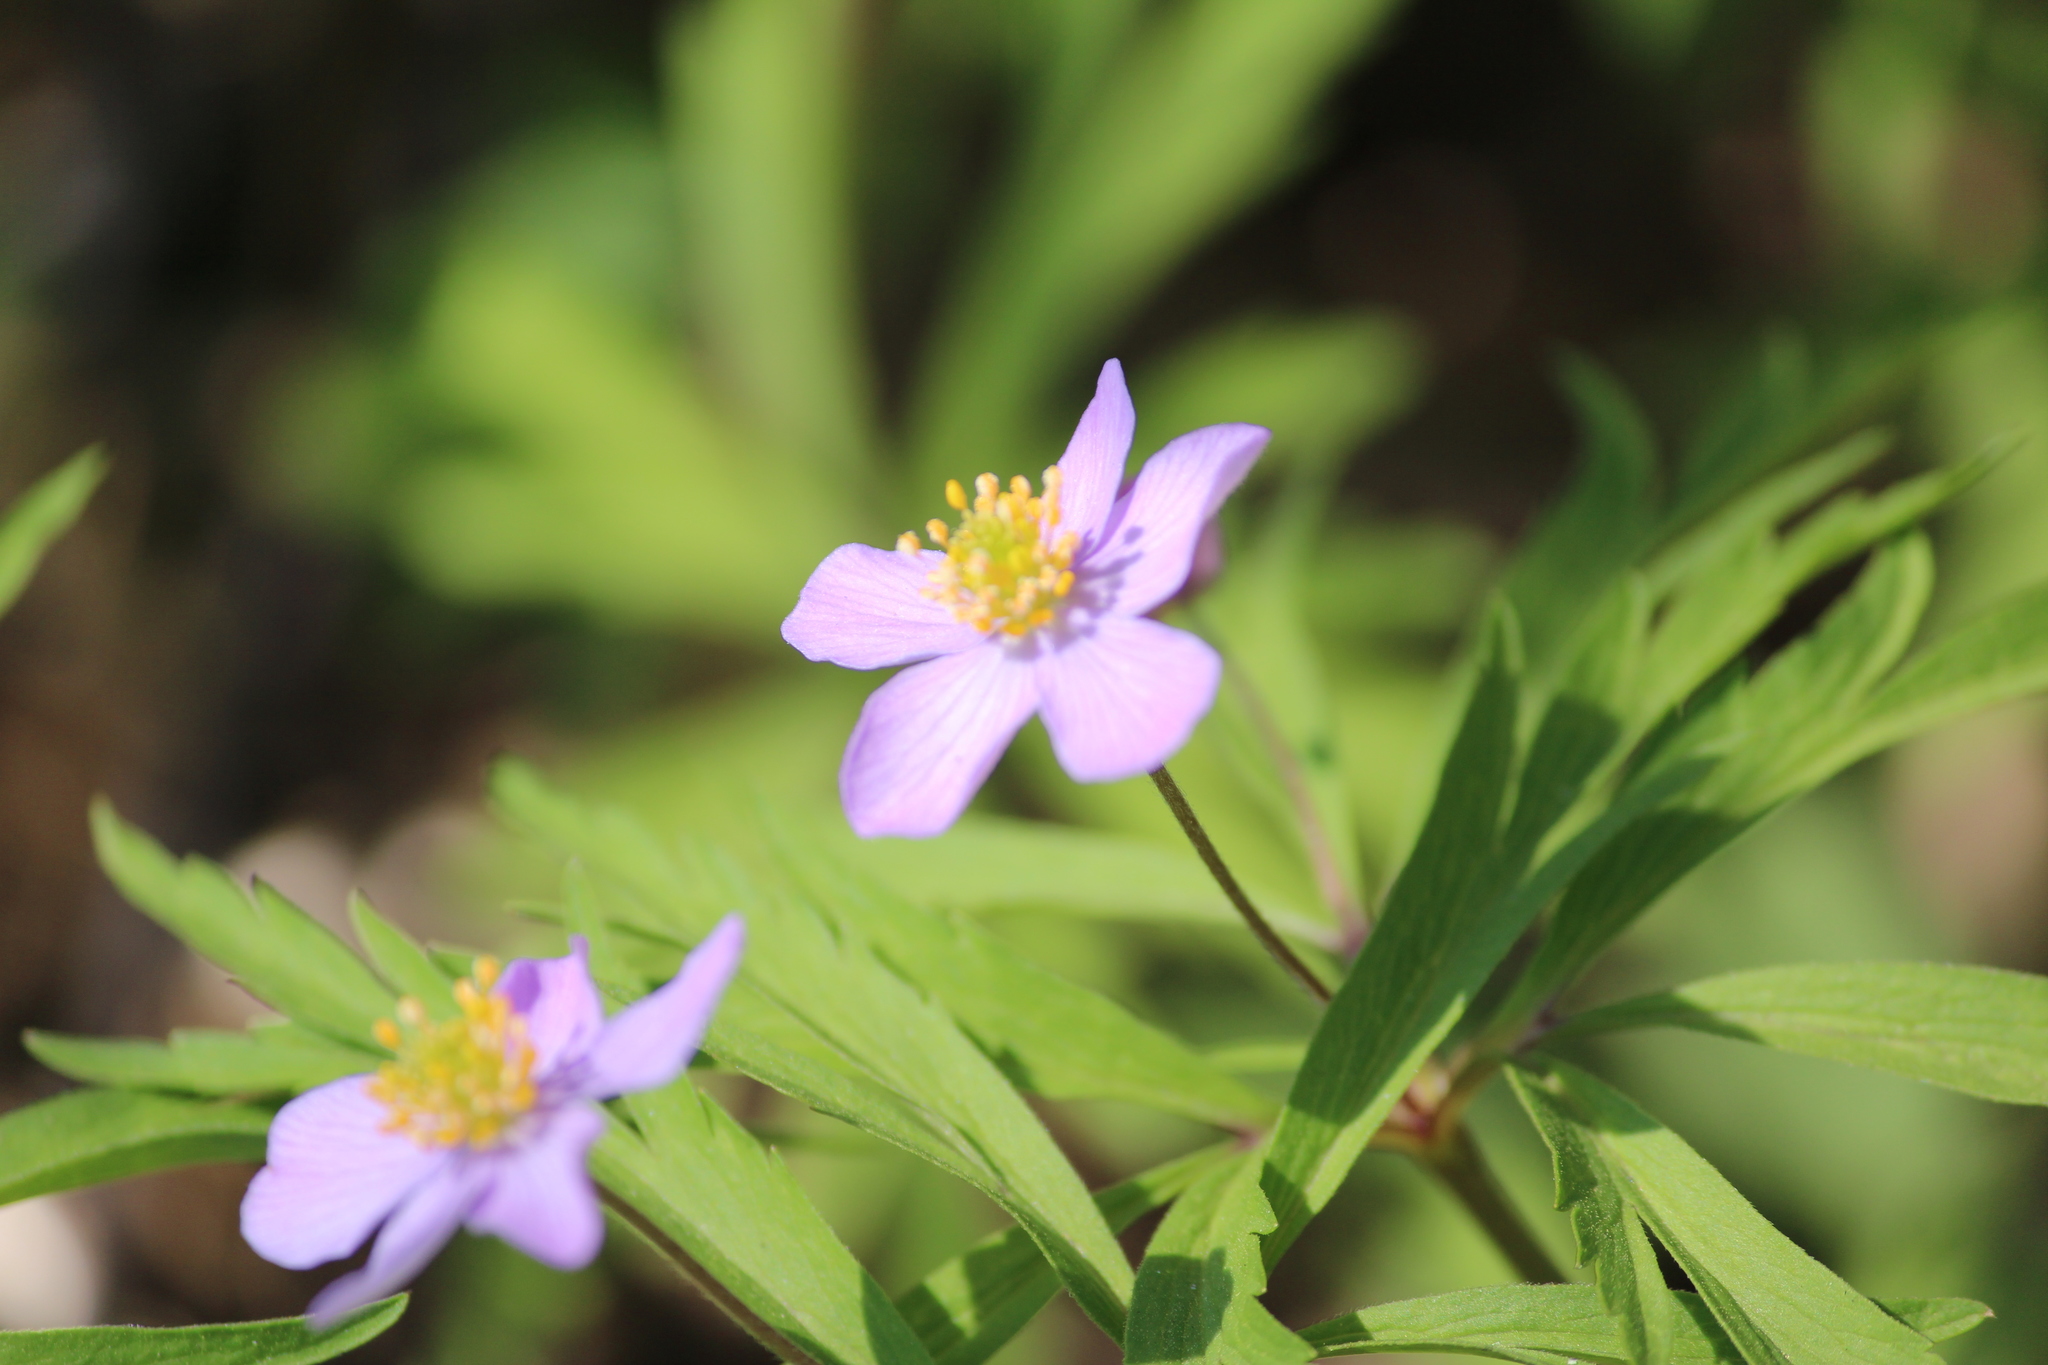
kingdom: Plantae
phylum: Tracheophyta
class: Magnoliopsida
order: Ranunculales
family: Ranunculaceae
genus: Anemone
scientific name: Anemone caerulea
